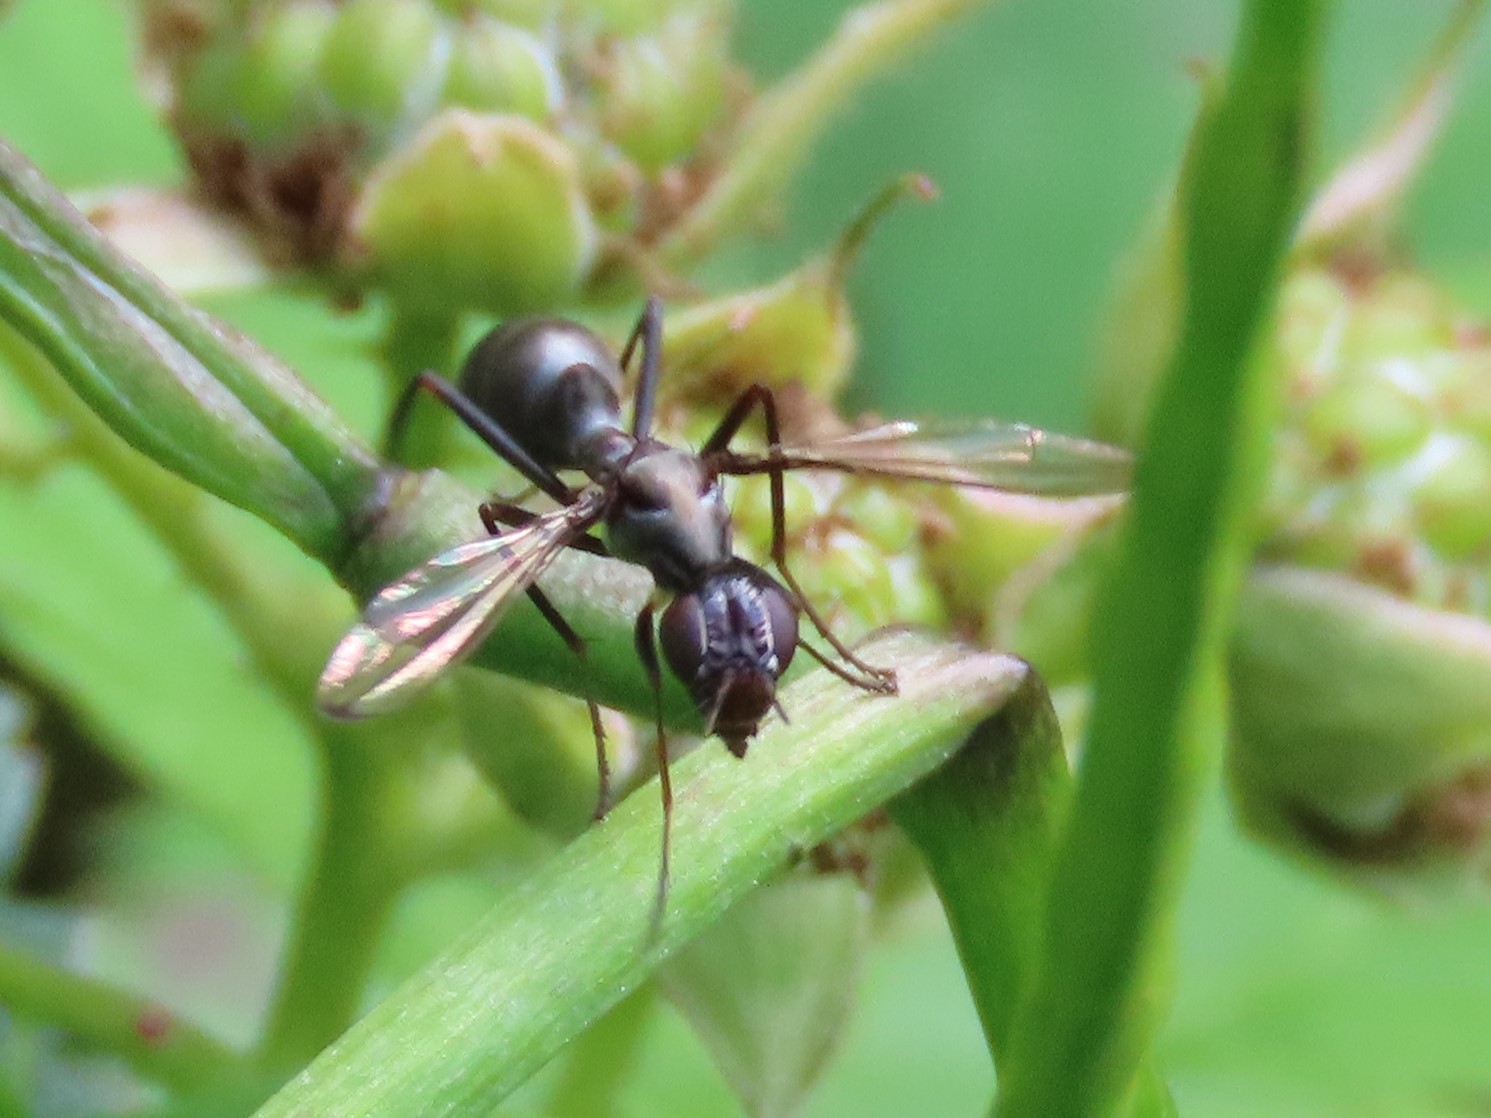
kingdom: Animalia
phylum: Arthropoda
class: Insecta
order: Diptera
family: Ulidiidae
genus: Myrmecothea
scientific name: Myrmecothea myrmecoides
